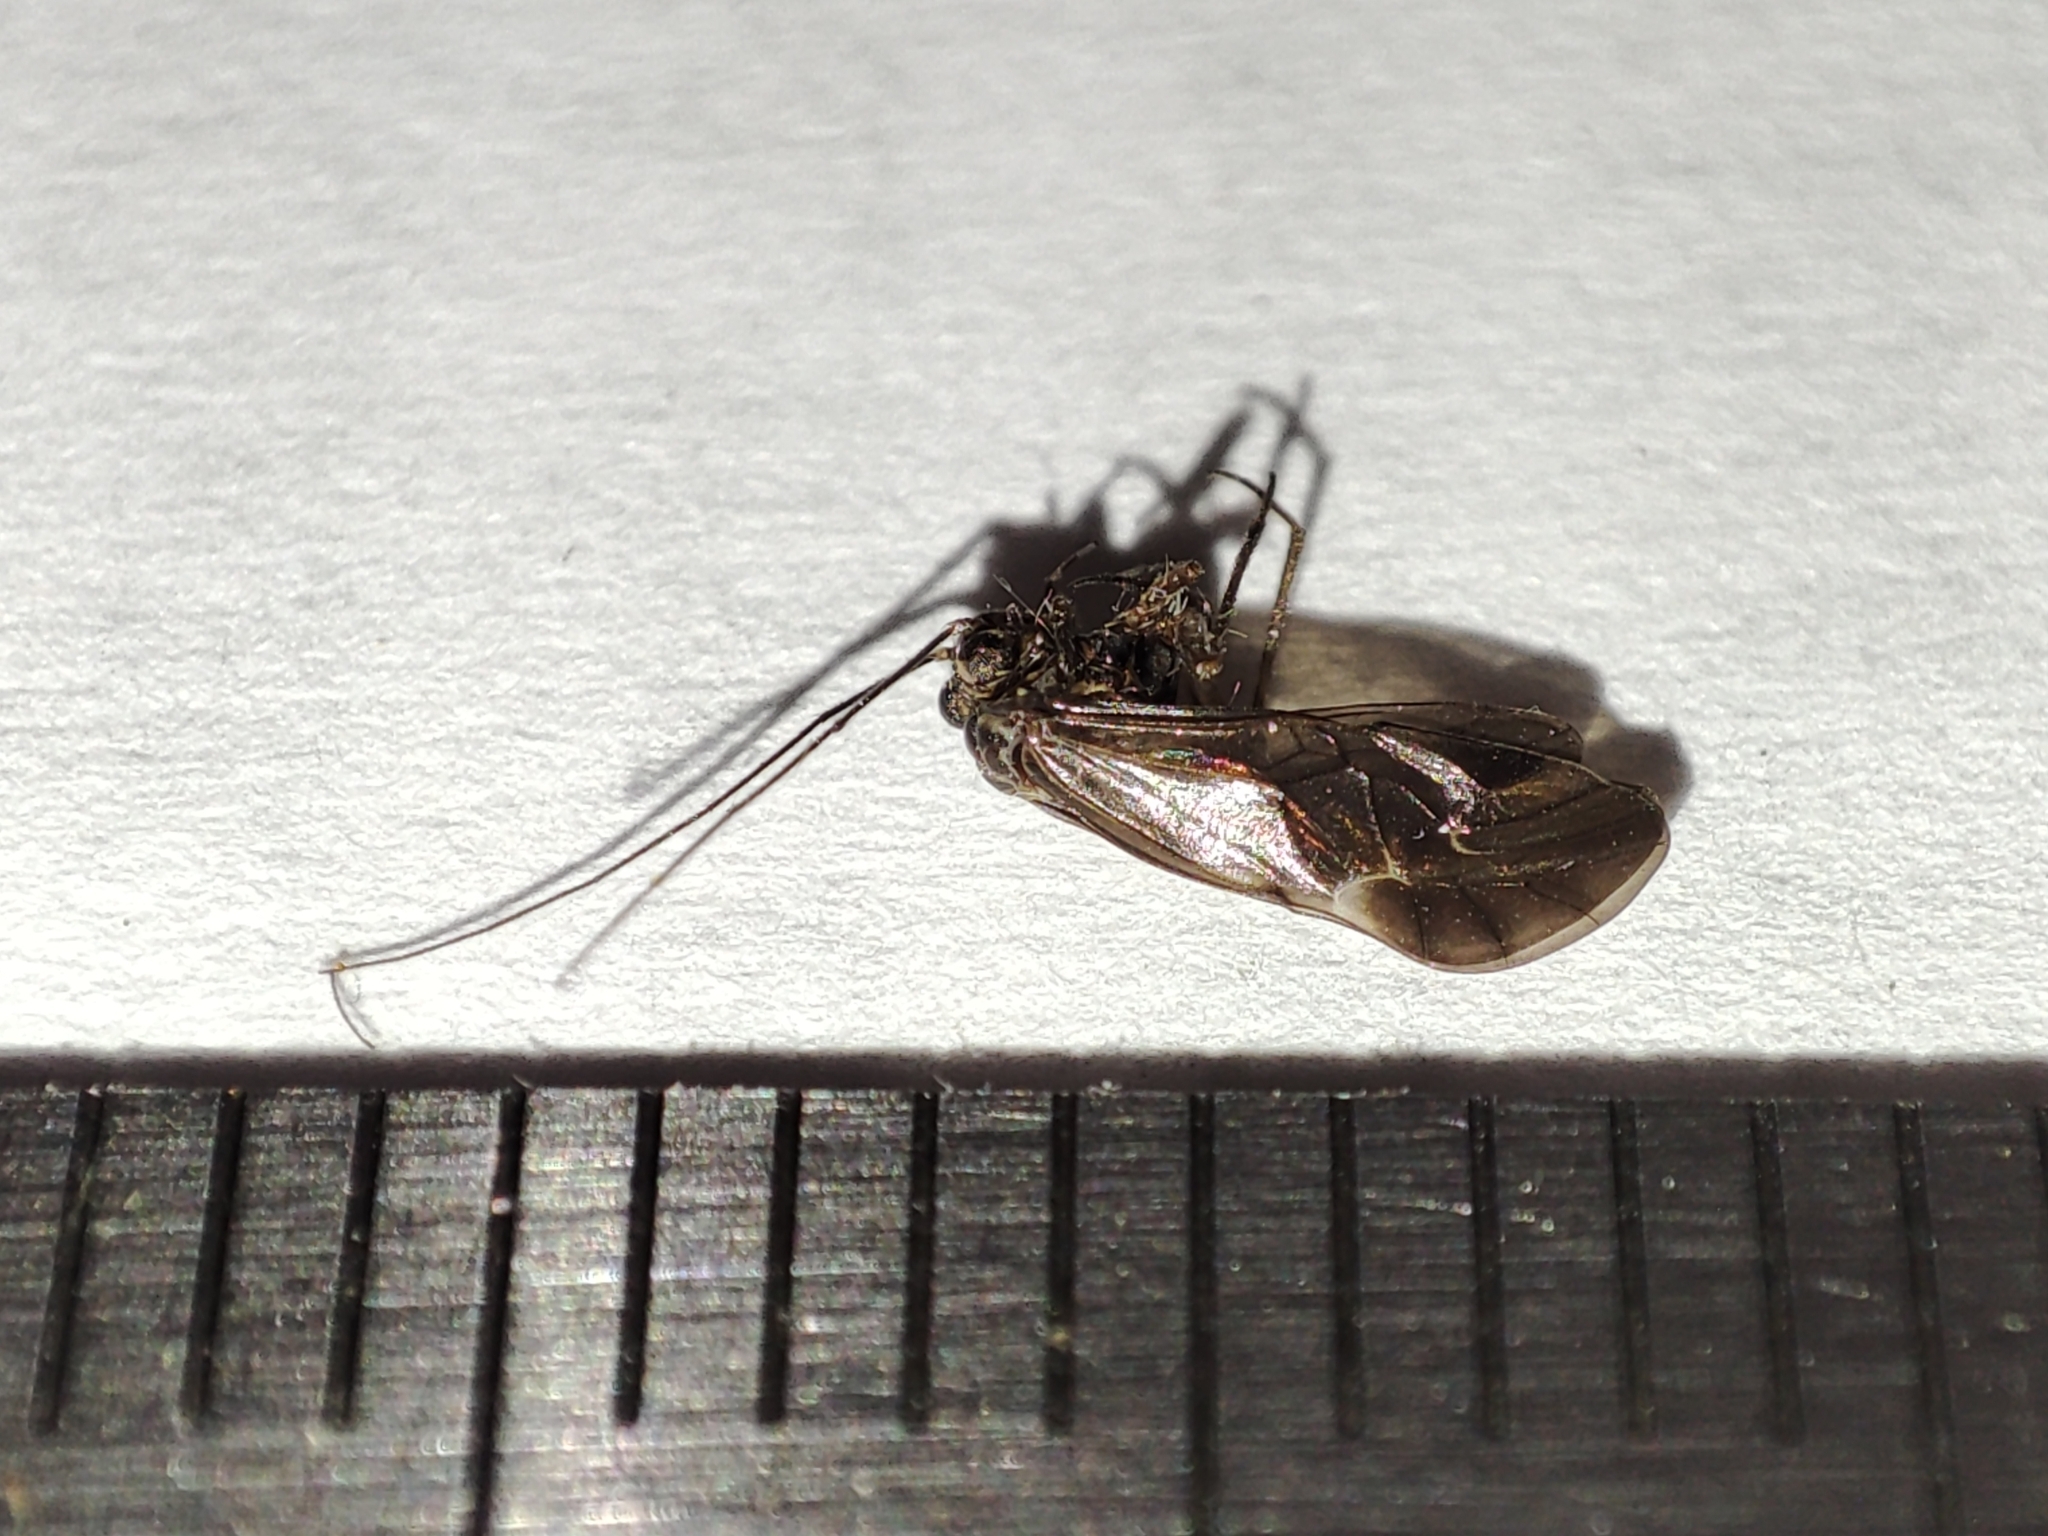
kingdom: Animalia
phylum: Arthropoda
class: Insecta
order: Psocodea
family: Psocidae
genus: Metylophorus
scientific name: Metylophorus nebulosus
